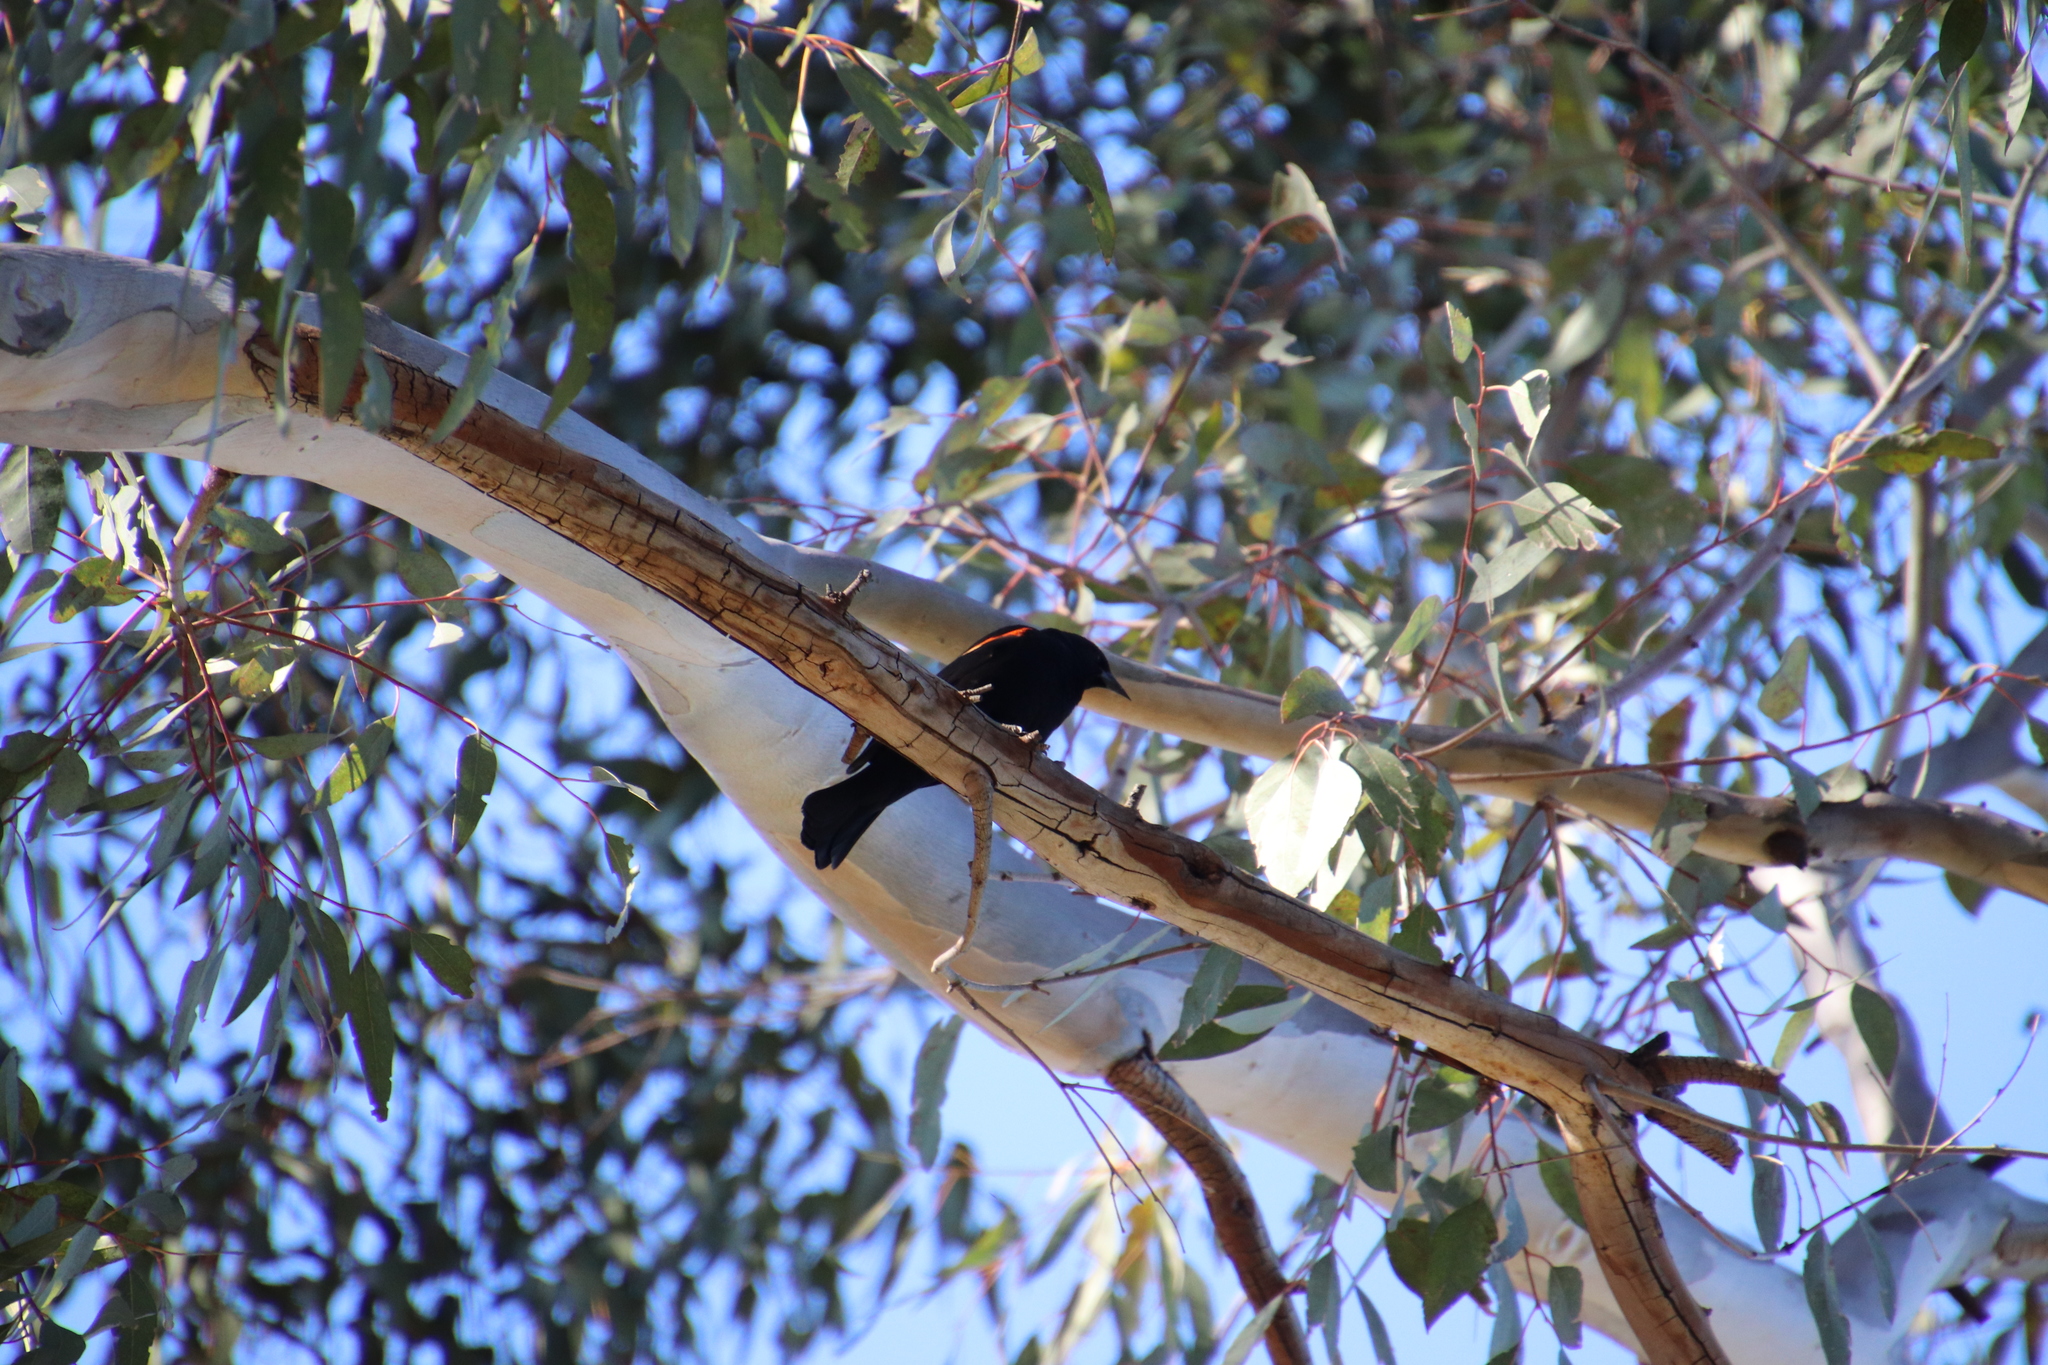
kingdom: Animalia
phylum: Chordata
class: Aves
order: Passeriformes
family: Icteridae
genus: Agelaius
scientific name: Agelaius phoeniceus
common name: Red-winged blackbird
